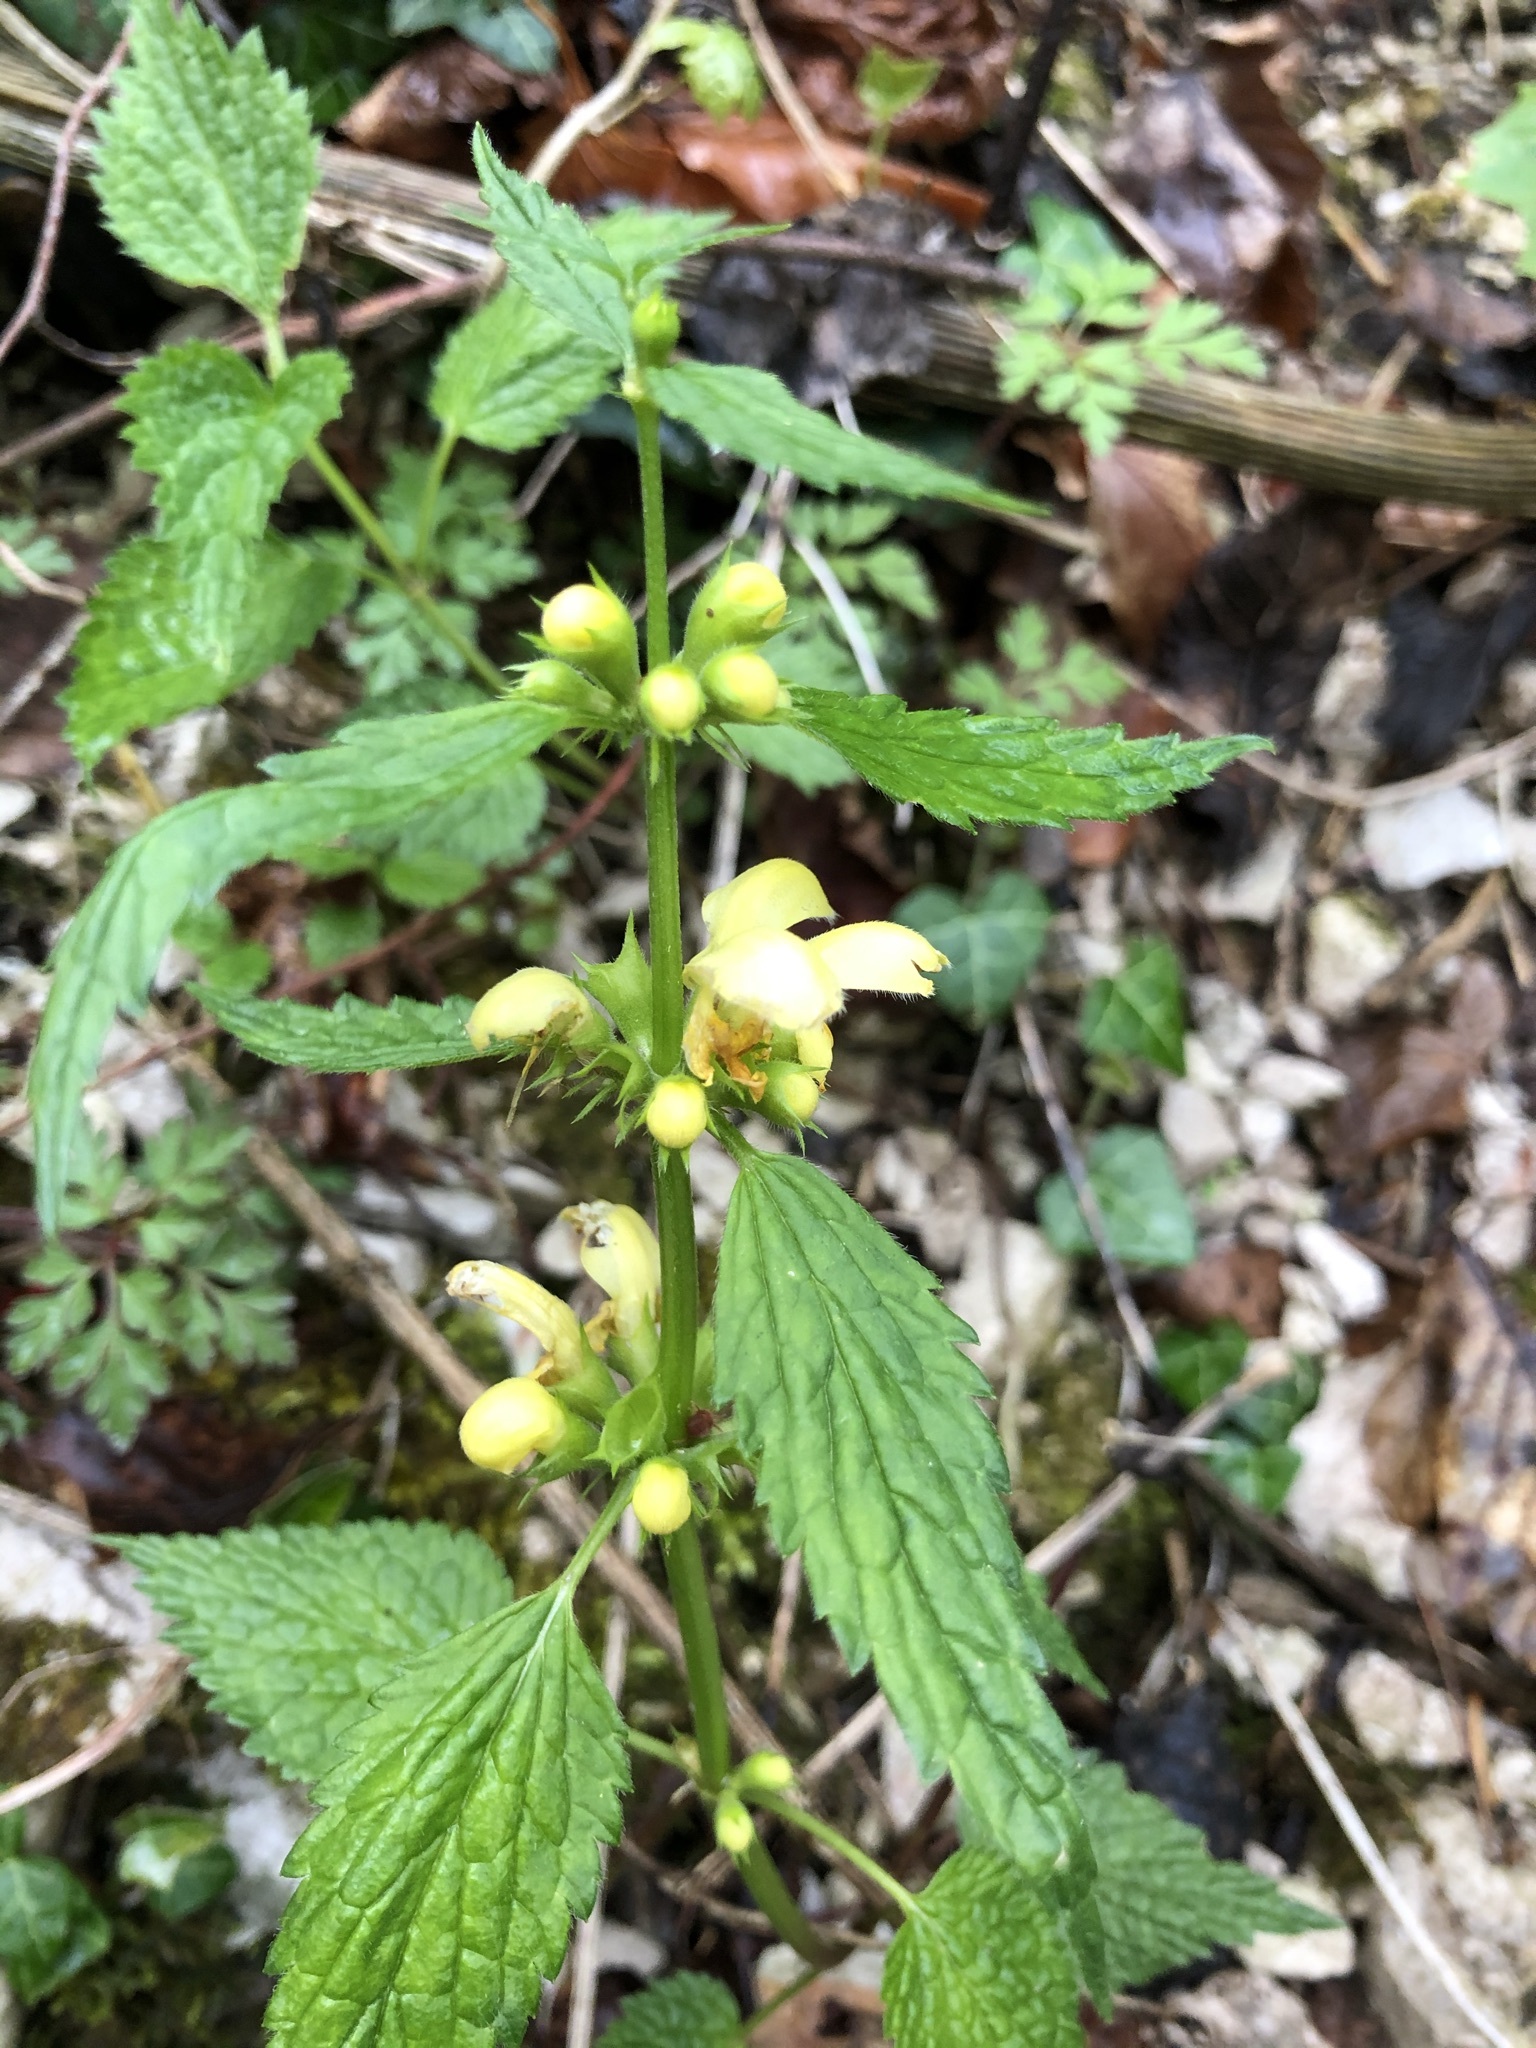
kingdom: Plantae
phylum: Tracheophyta
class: Magnoliopsida
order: Lamiales
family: Lamiaceae
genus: Lamium
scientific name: Lamium galeobdolon
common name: Yellow archangel
